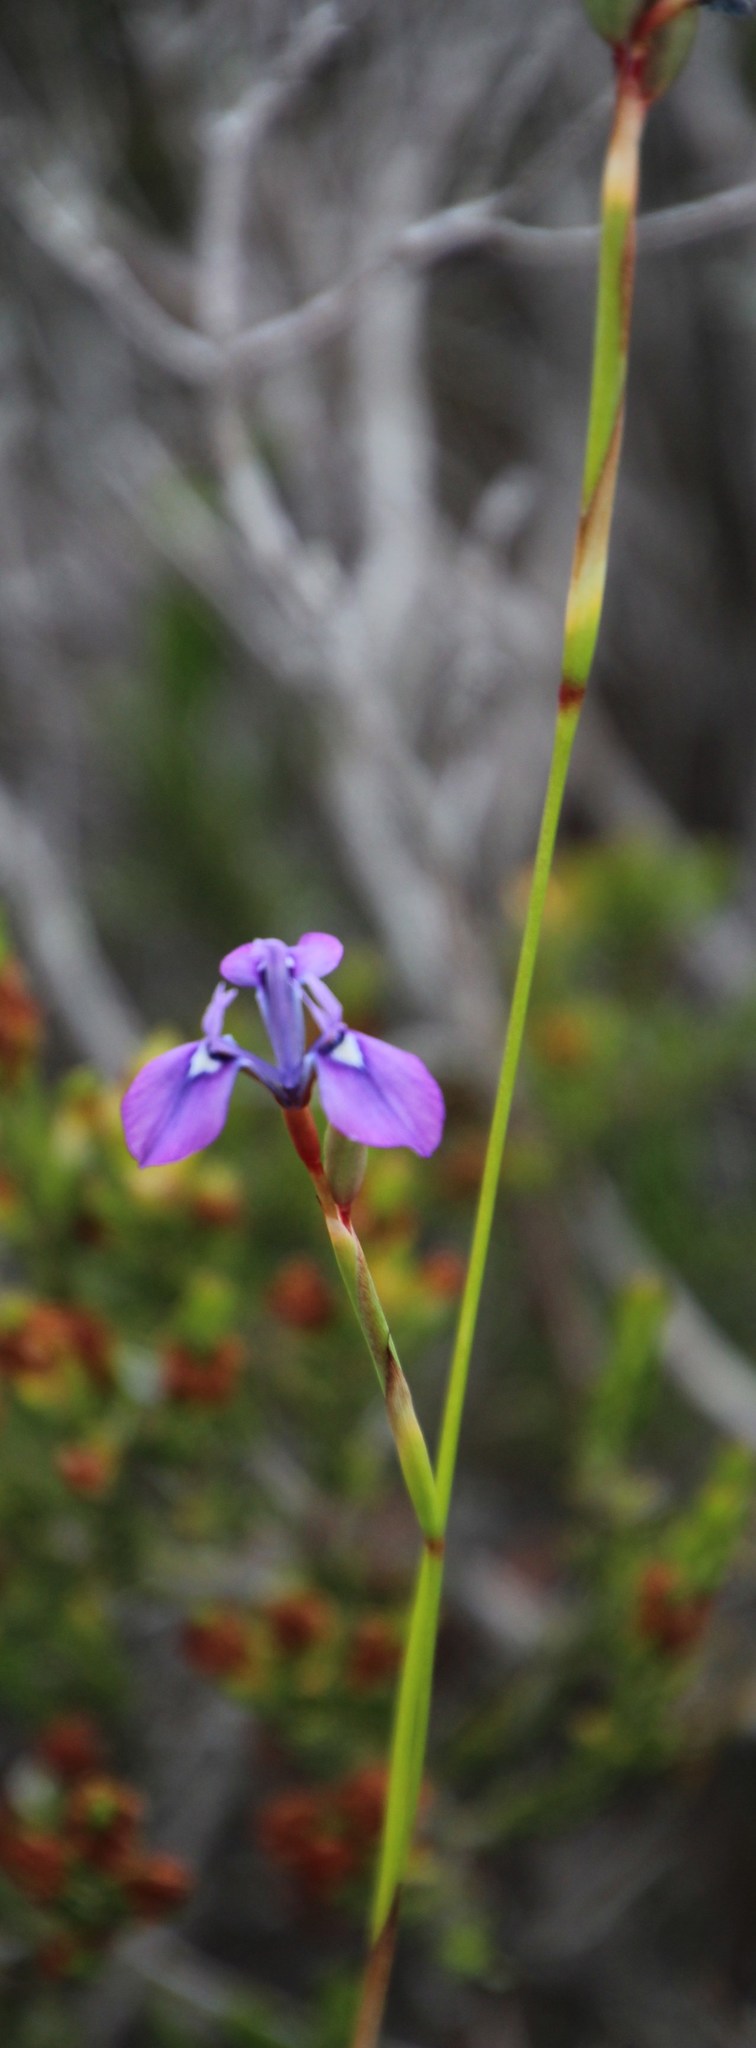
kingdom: Plantae
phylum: Tracheophyta
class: Liliopsida
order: Asparagales
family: Iridaceae
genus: Moraea
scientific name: Moraea tripetala
